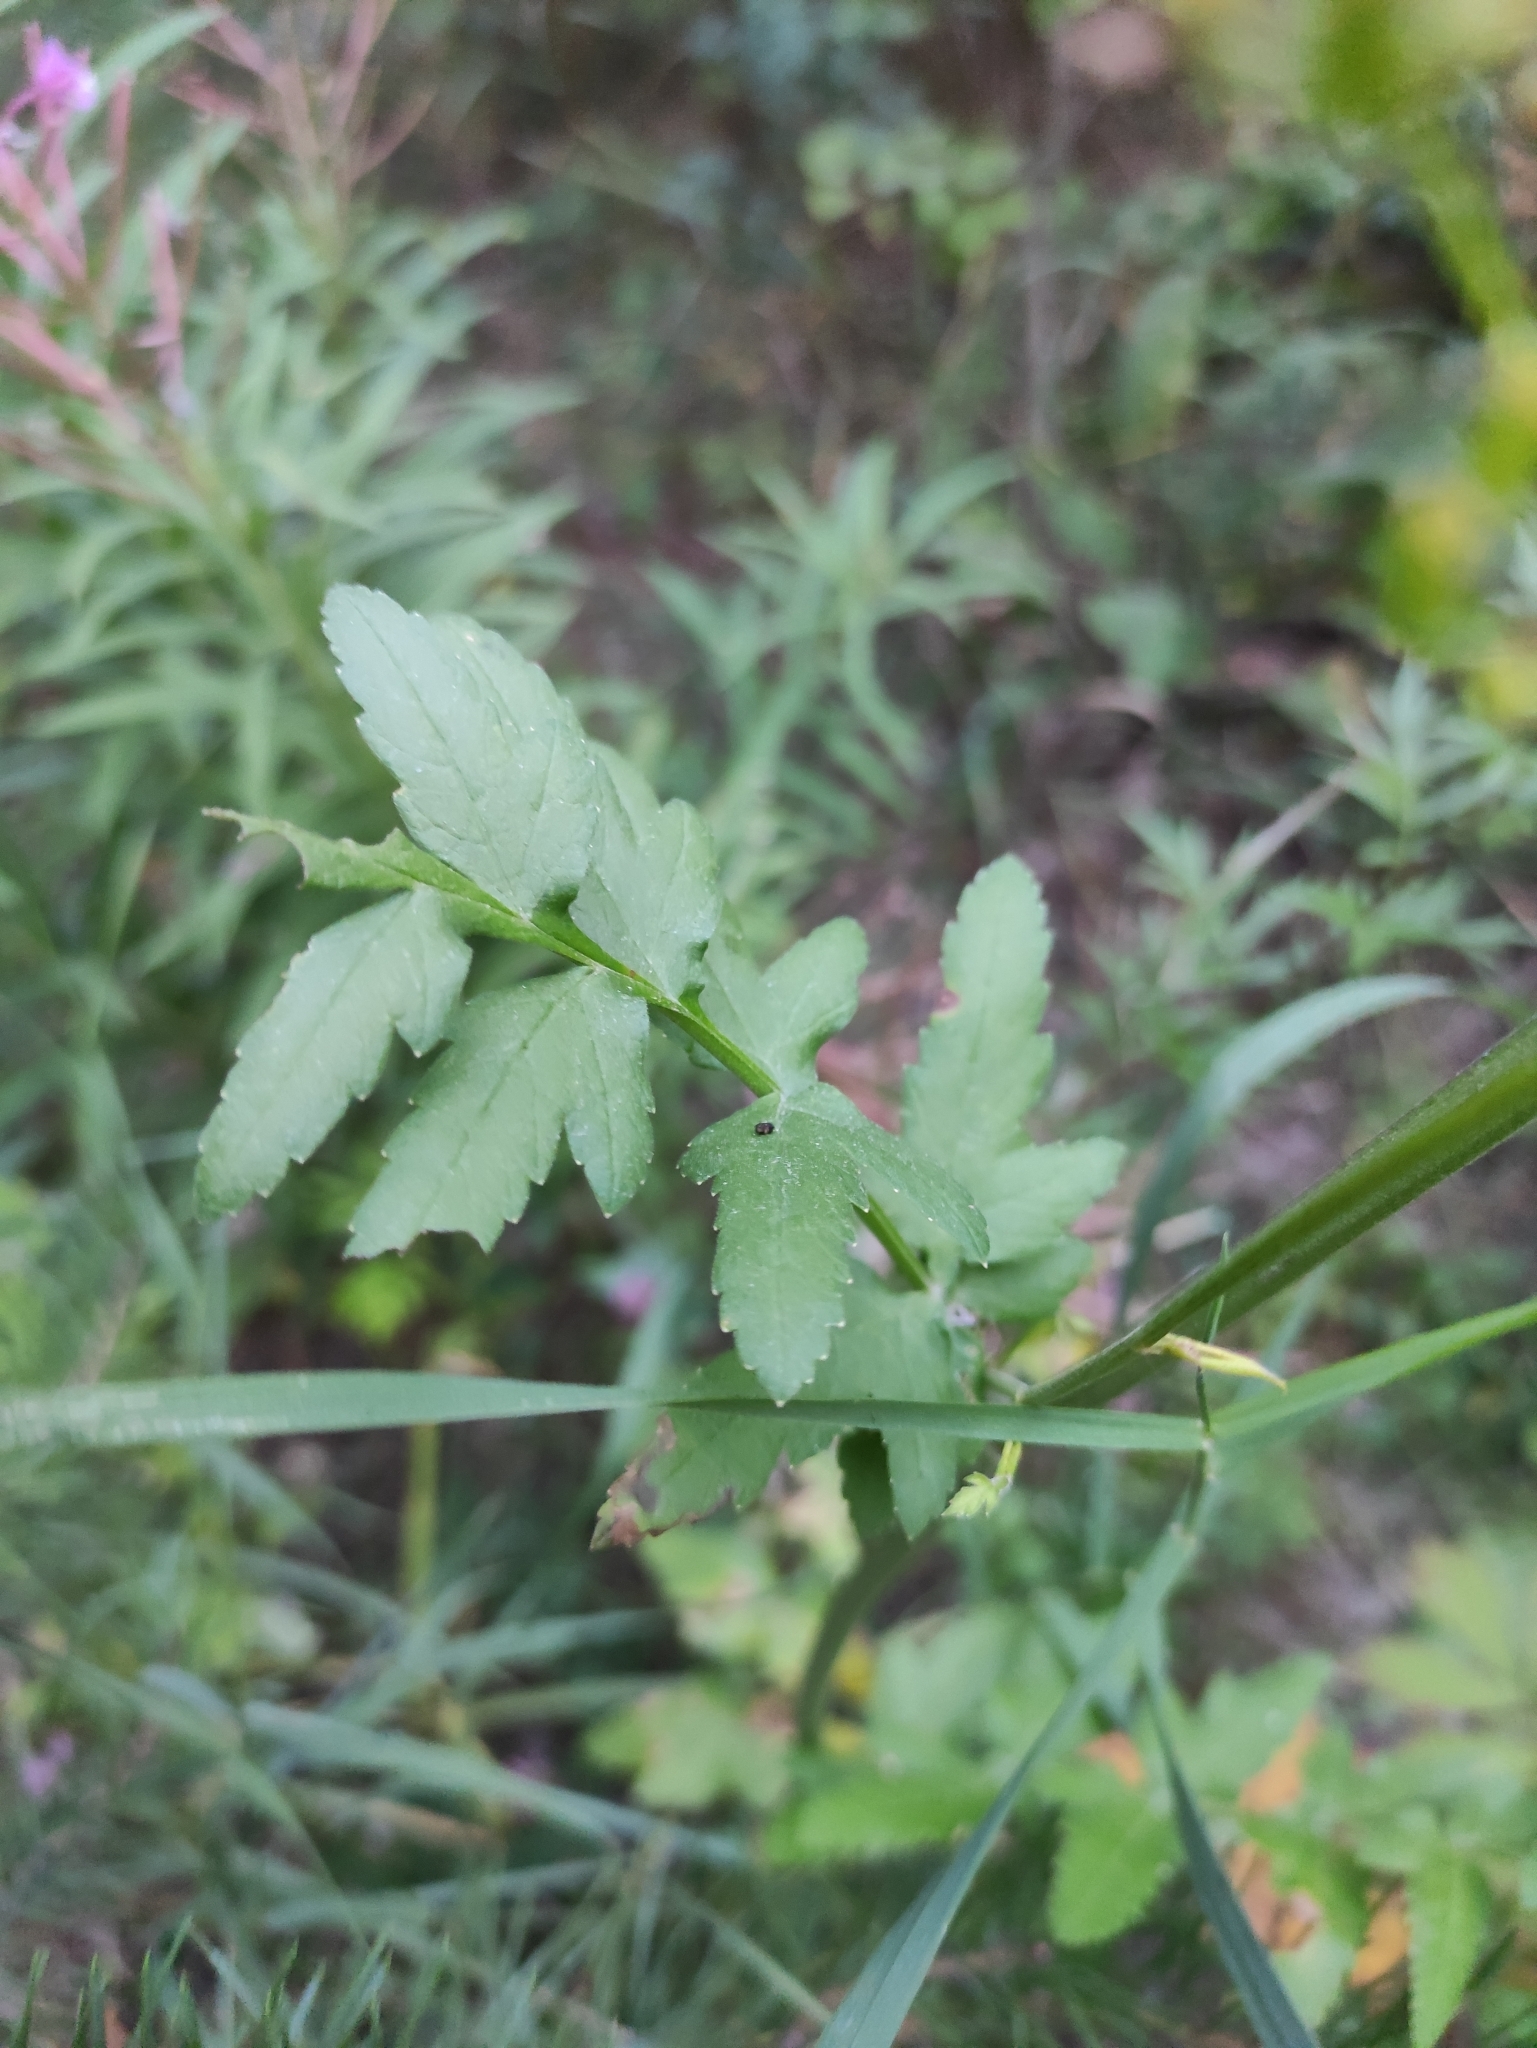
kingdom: Plantae
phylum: Tracheophyta
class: Magnoliopsida
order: Apiales
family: Apiaceae
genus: Pastinaca
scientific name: Pastinaca sativa
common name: Wild parsnip
